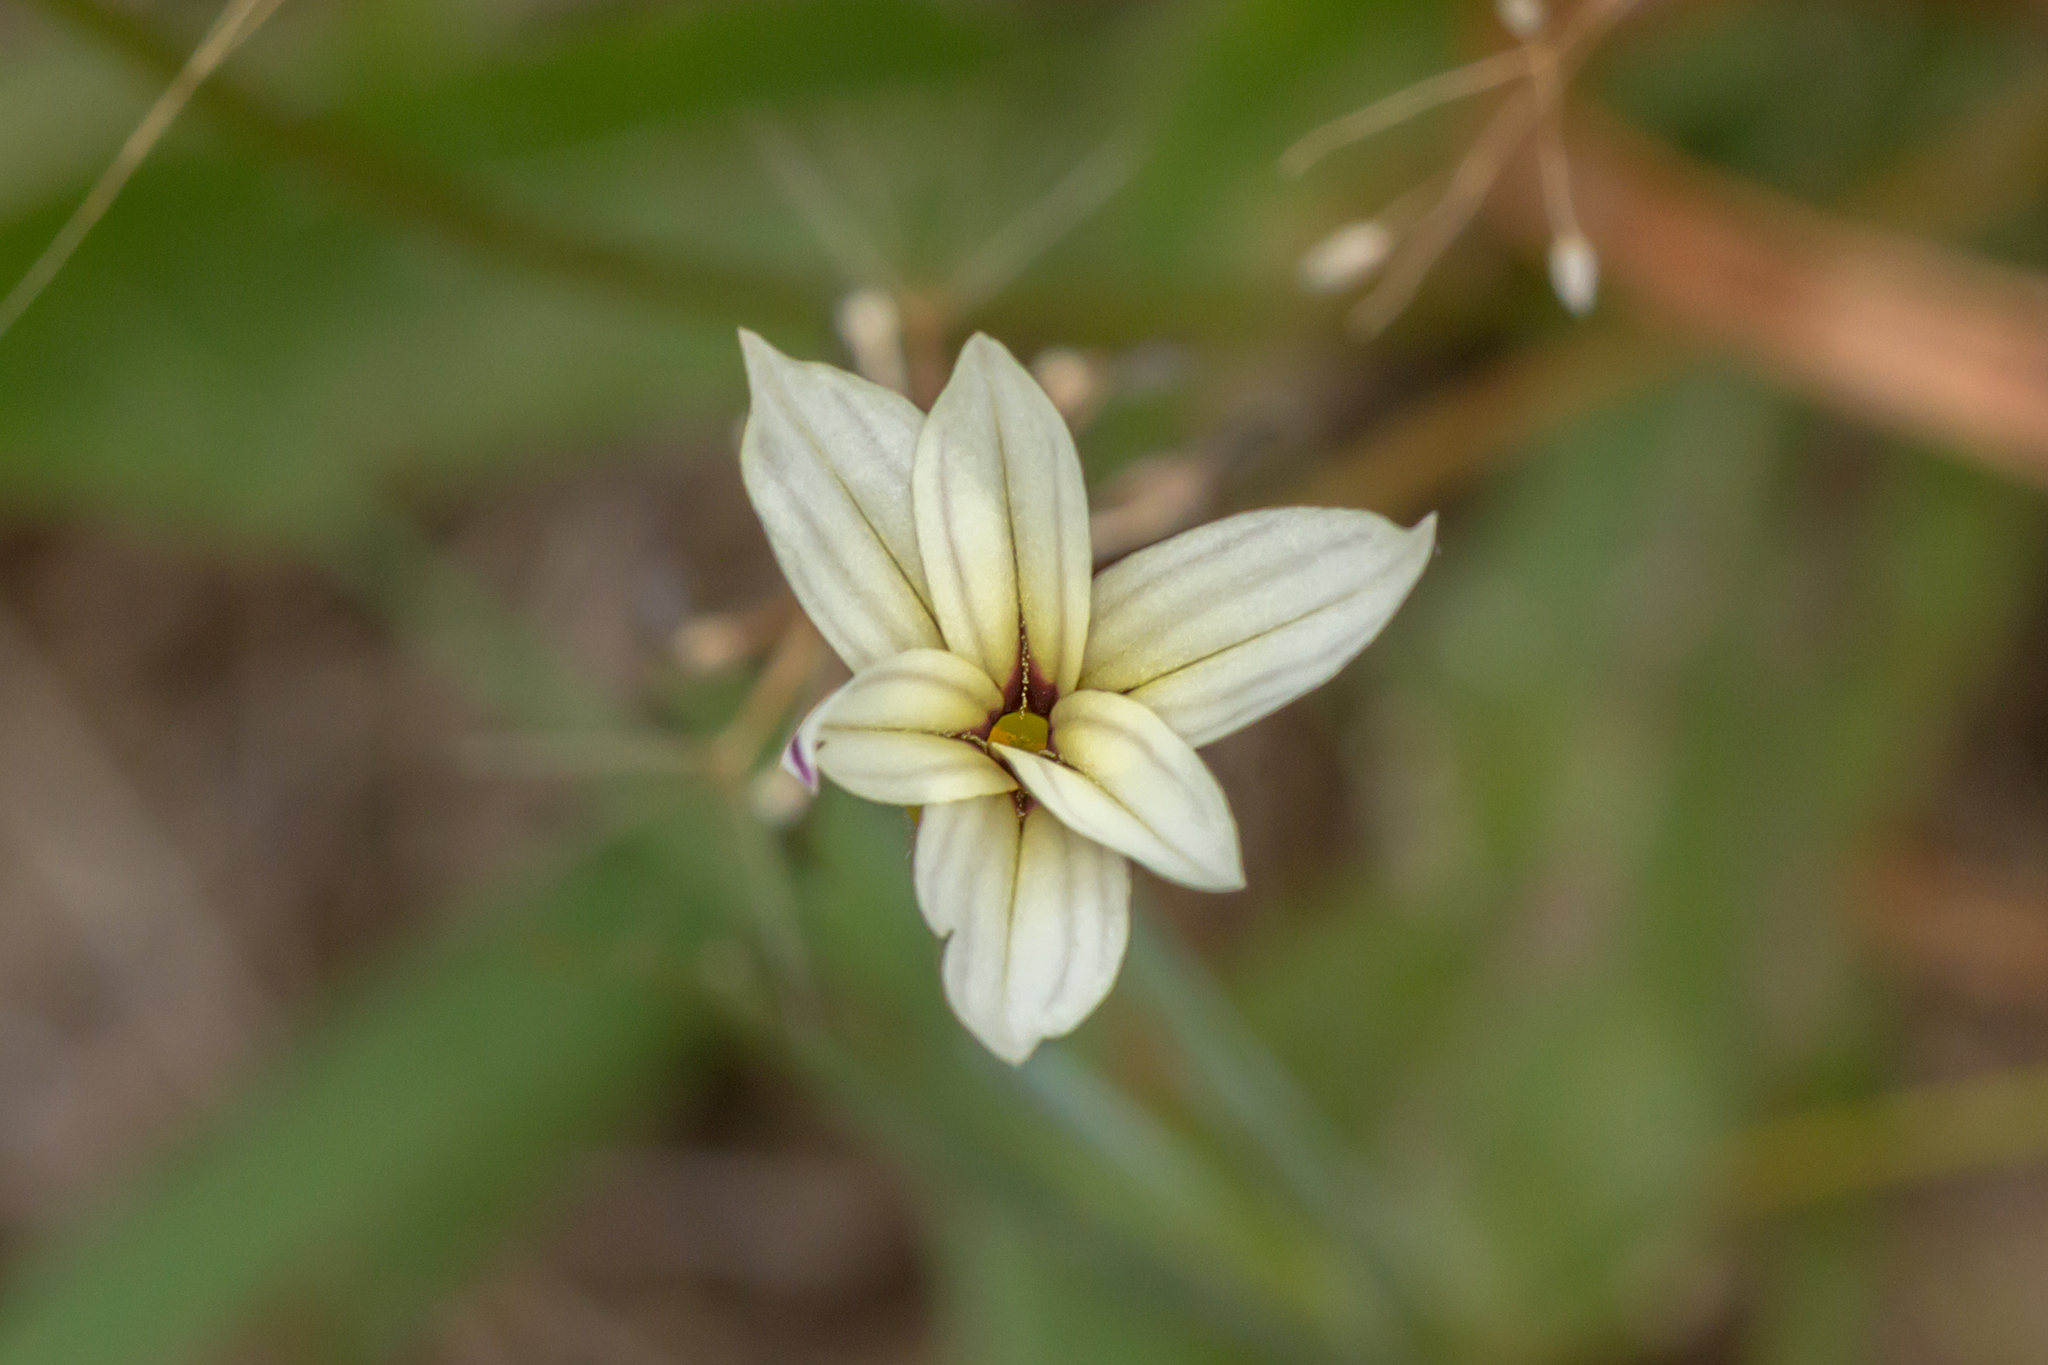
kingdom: Plantae
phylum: Tracheophyta
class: Liliopsida
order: Asparagales
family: Iridaceae
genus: Sisyrinchium
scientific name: Sisyrinchium micranthum
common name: Bermuda pigroot
